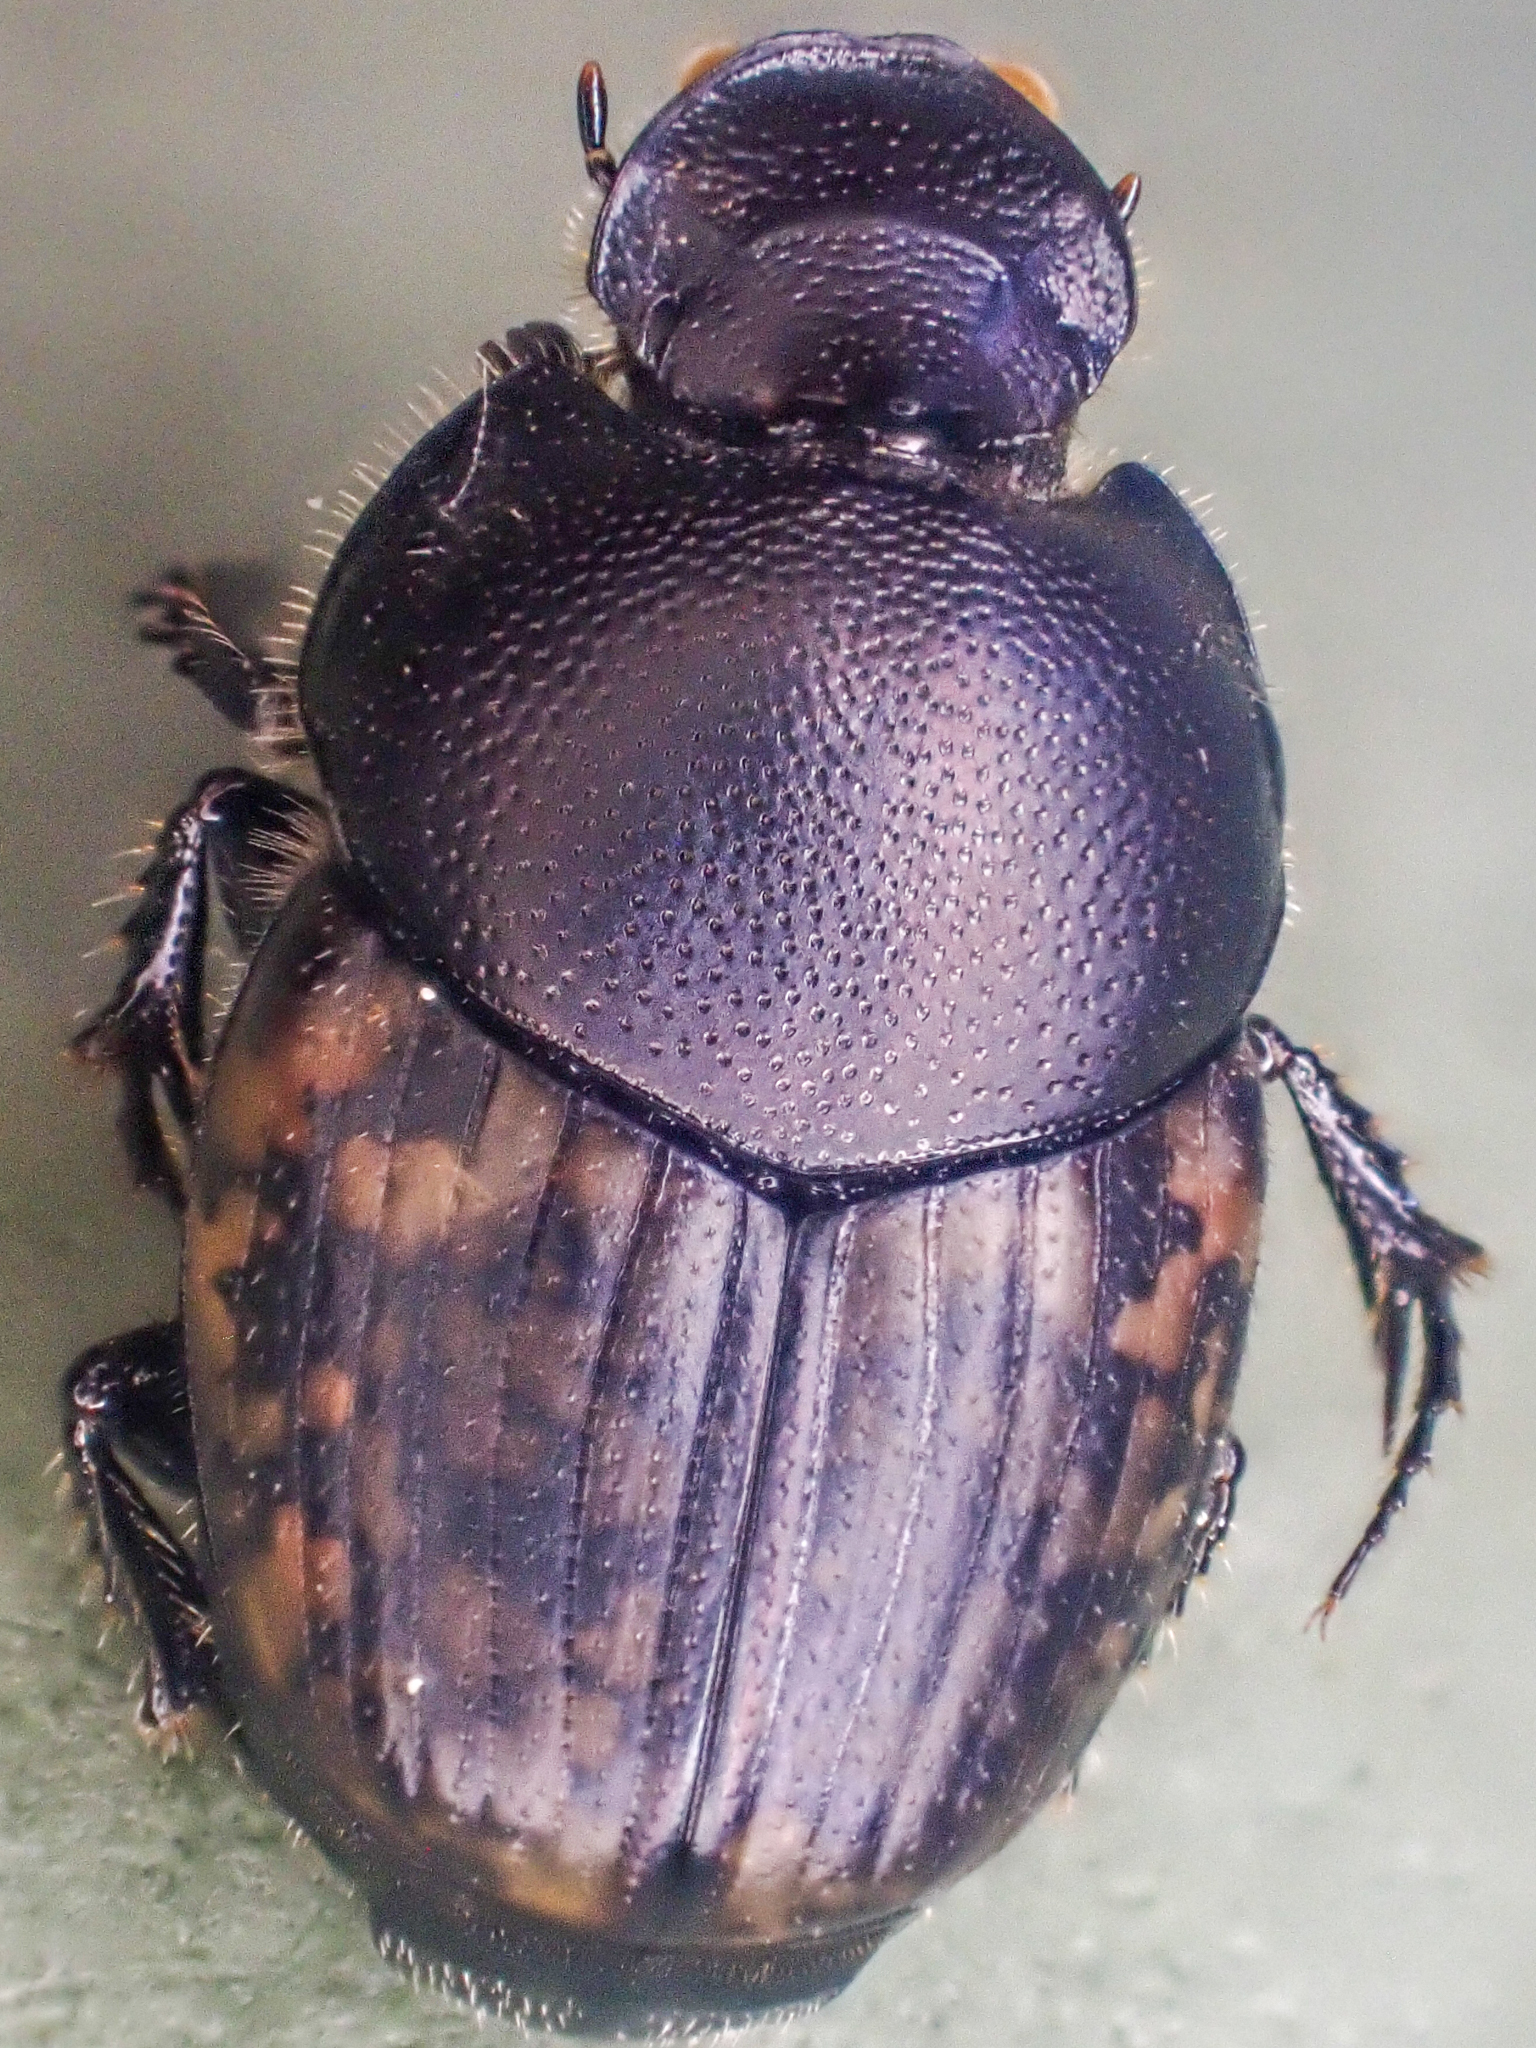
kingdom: Animalia
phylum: Arthropoda
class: Insecta
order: Coleoptera
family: Scarabaeidae
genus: Onthophagus
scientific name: Onthophagus nuchicornis
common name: Mottled dung beetle
